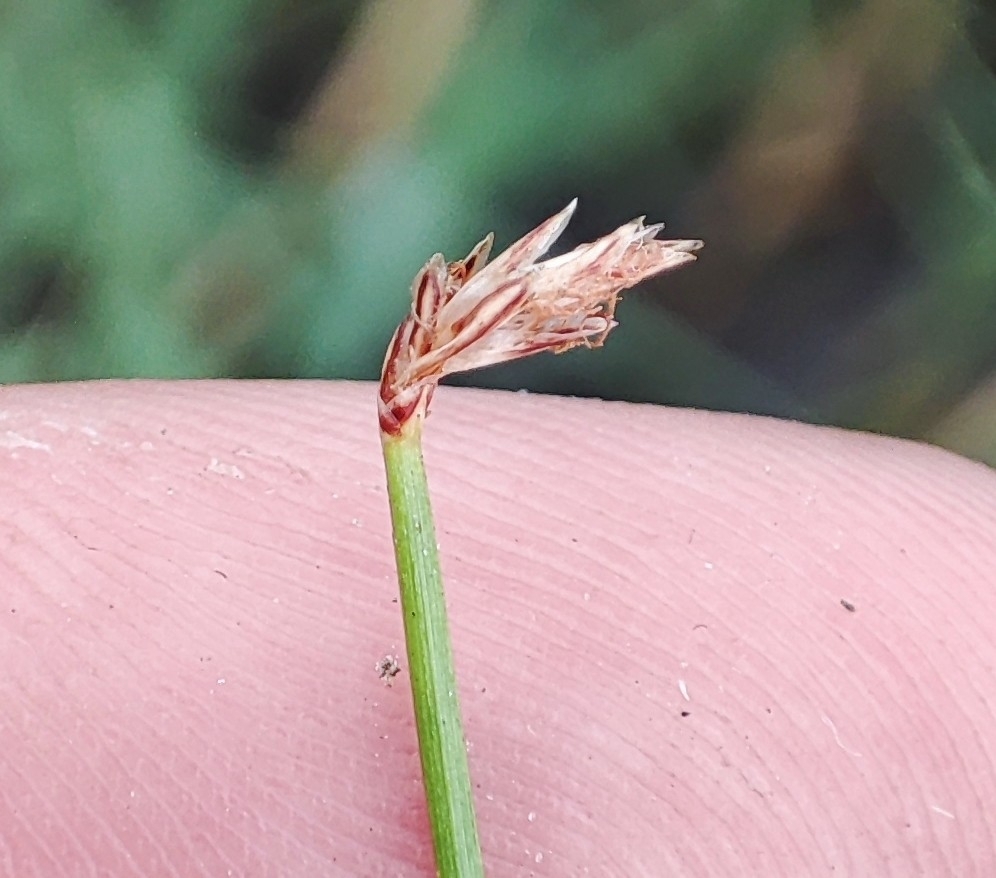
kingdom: Plantae
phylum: Tracheophyta
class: Liliopsida
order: Poales
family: Cyperaceae
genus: Eleocharis
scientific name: Eleocharis palustris
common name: Common spike-rush
